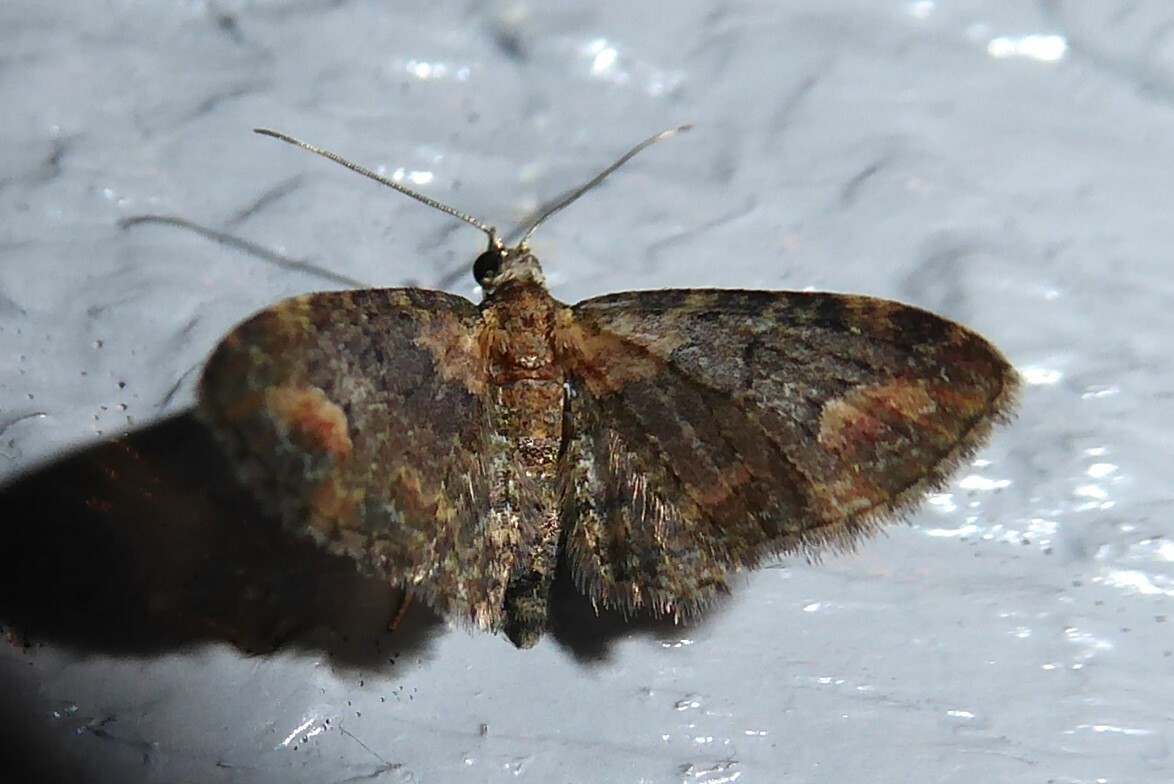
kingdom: Animalia
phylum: Arthropoda
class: Insecta
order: Lepidoptera
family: Geometridae
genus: Pasiphilodes
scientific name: Pasiphilodes testulata
